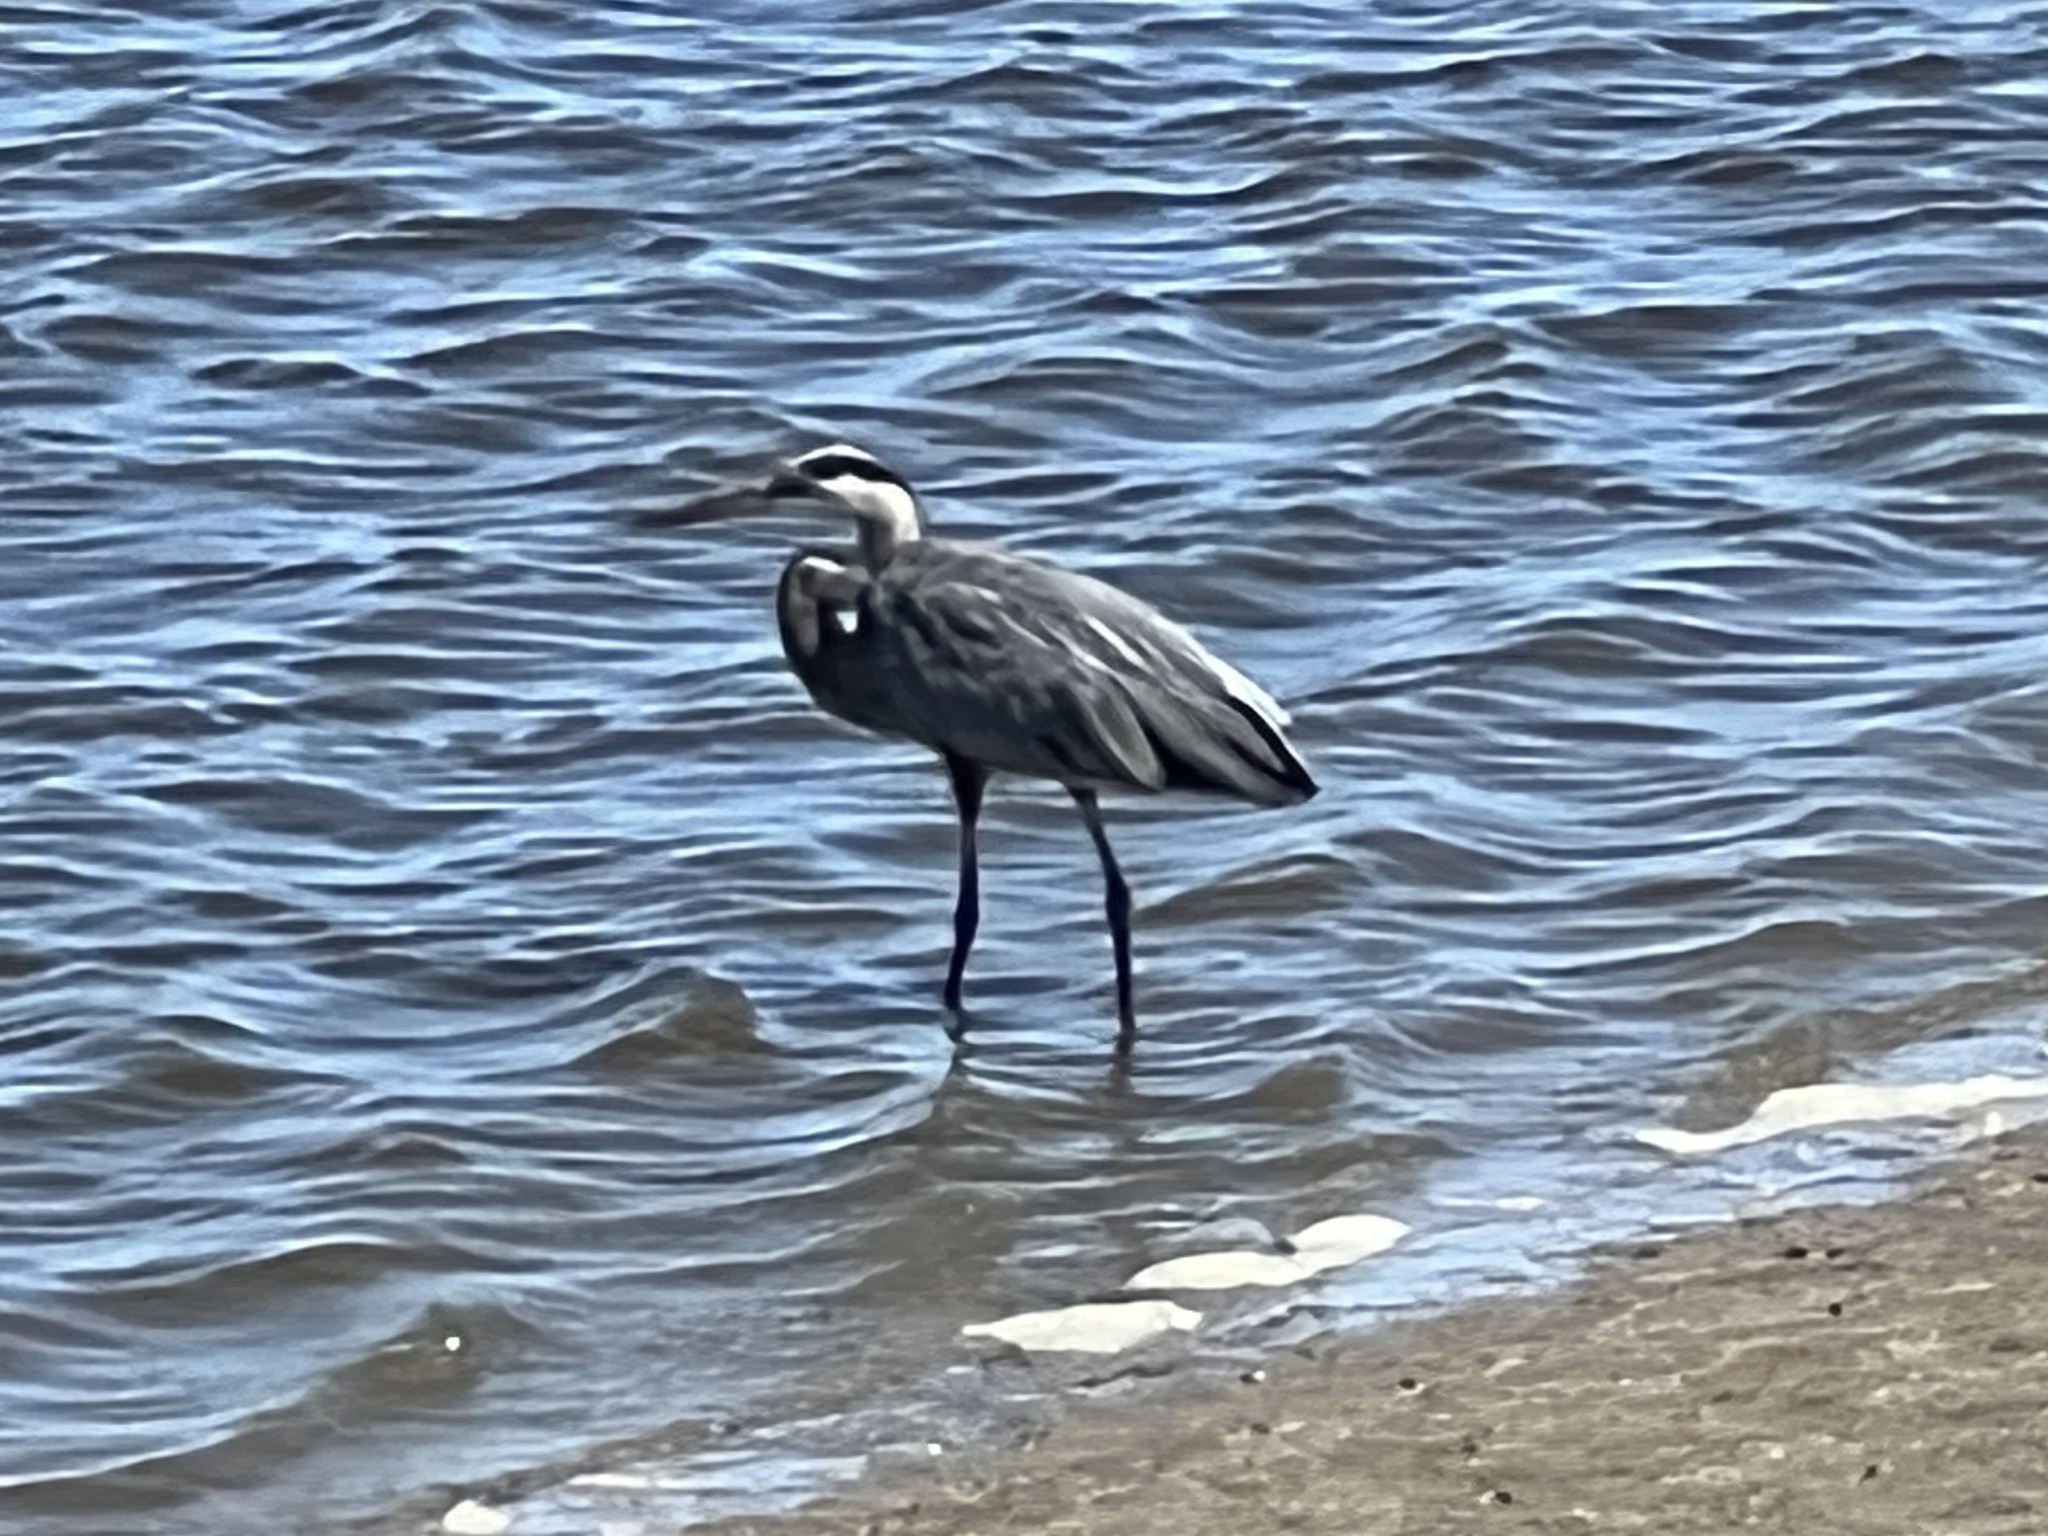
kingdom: Animalia
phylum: Chordata
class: Aves
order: Pelecaniformes
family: Ardeidae
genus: Ardea
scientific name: Ardea herodias
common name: Great blue heron
